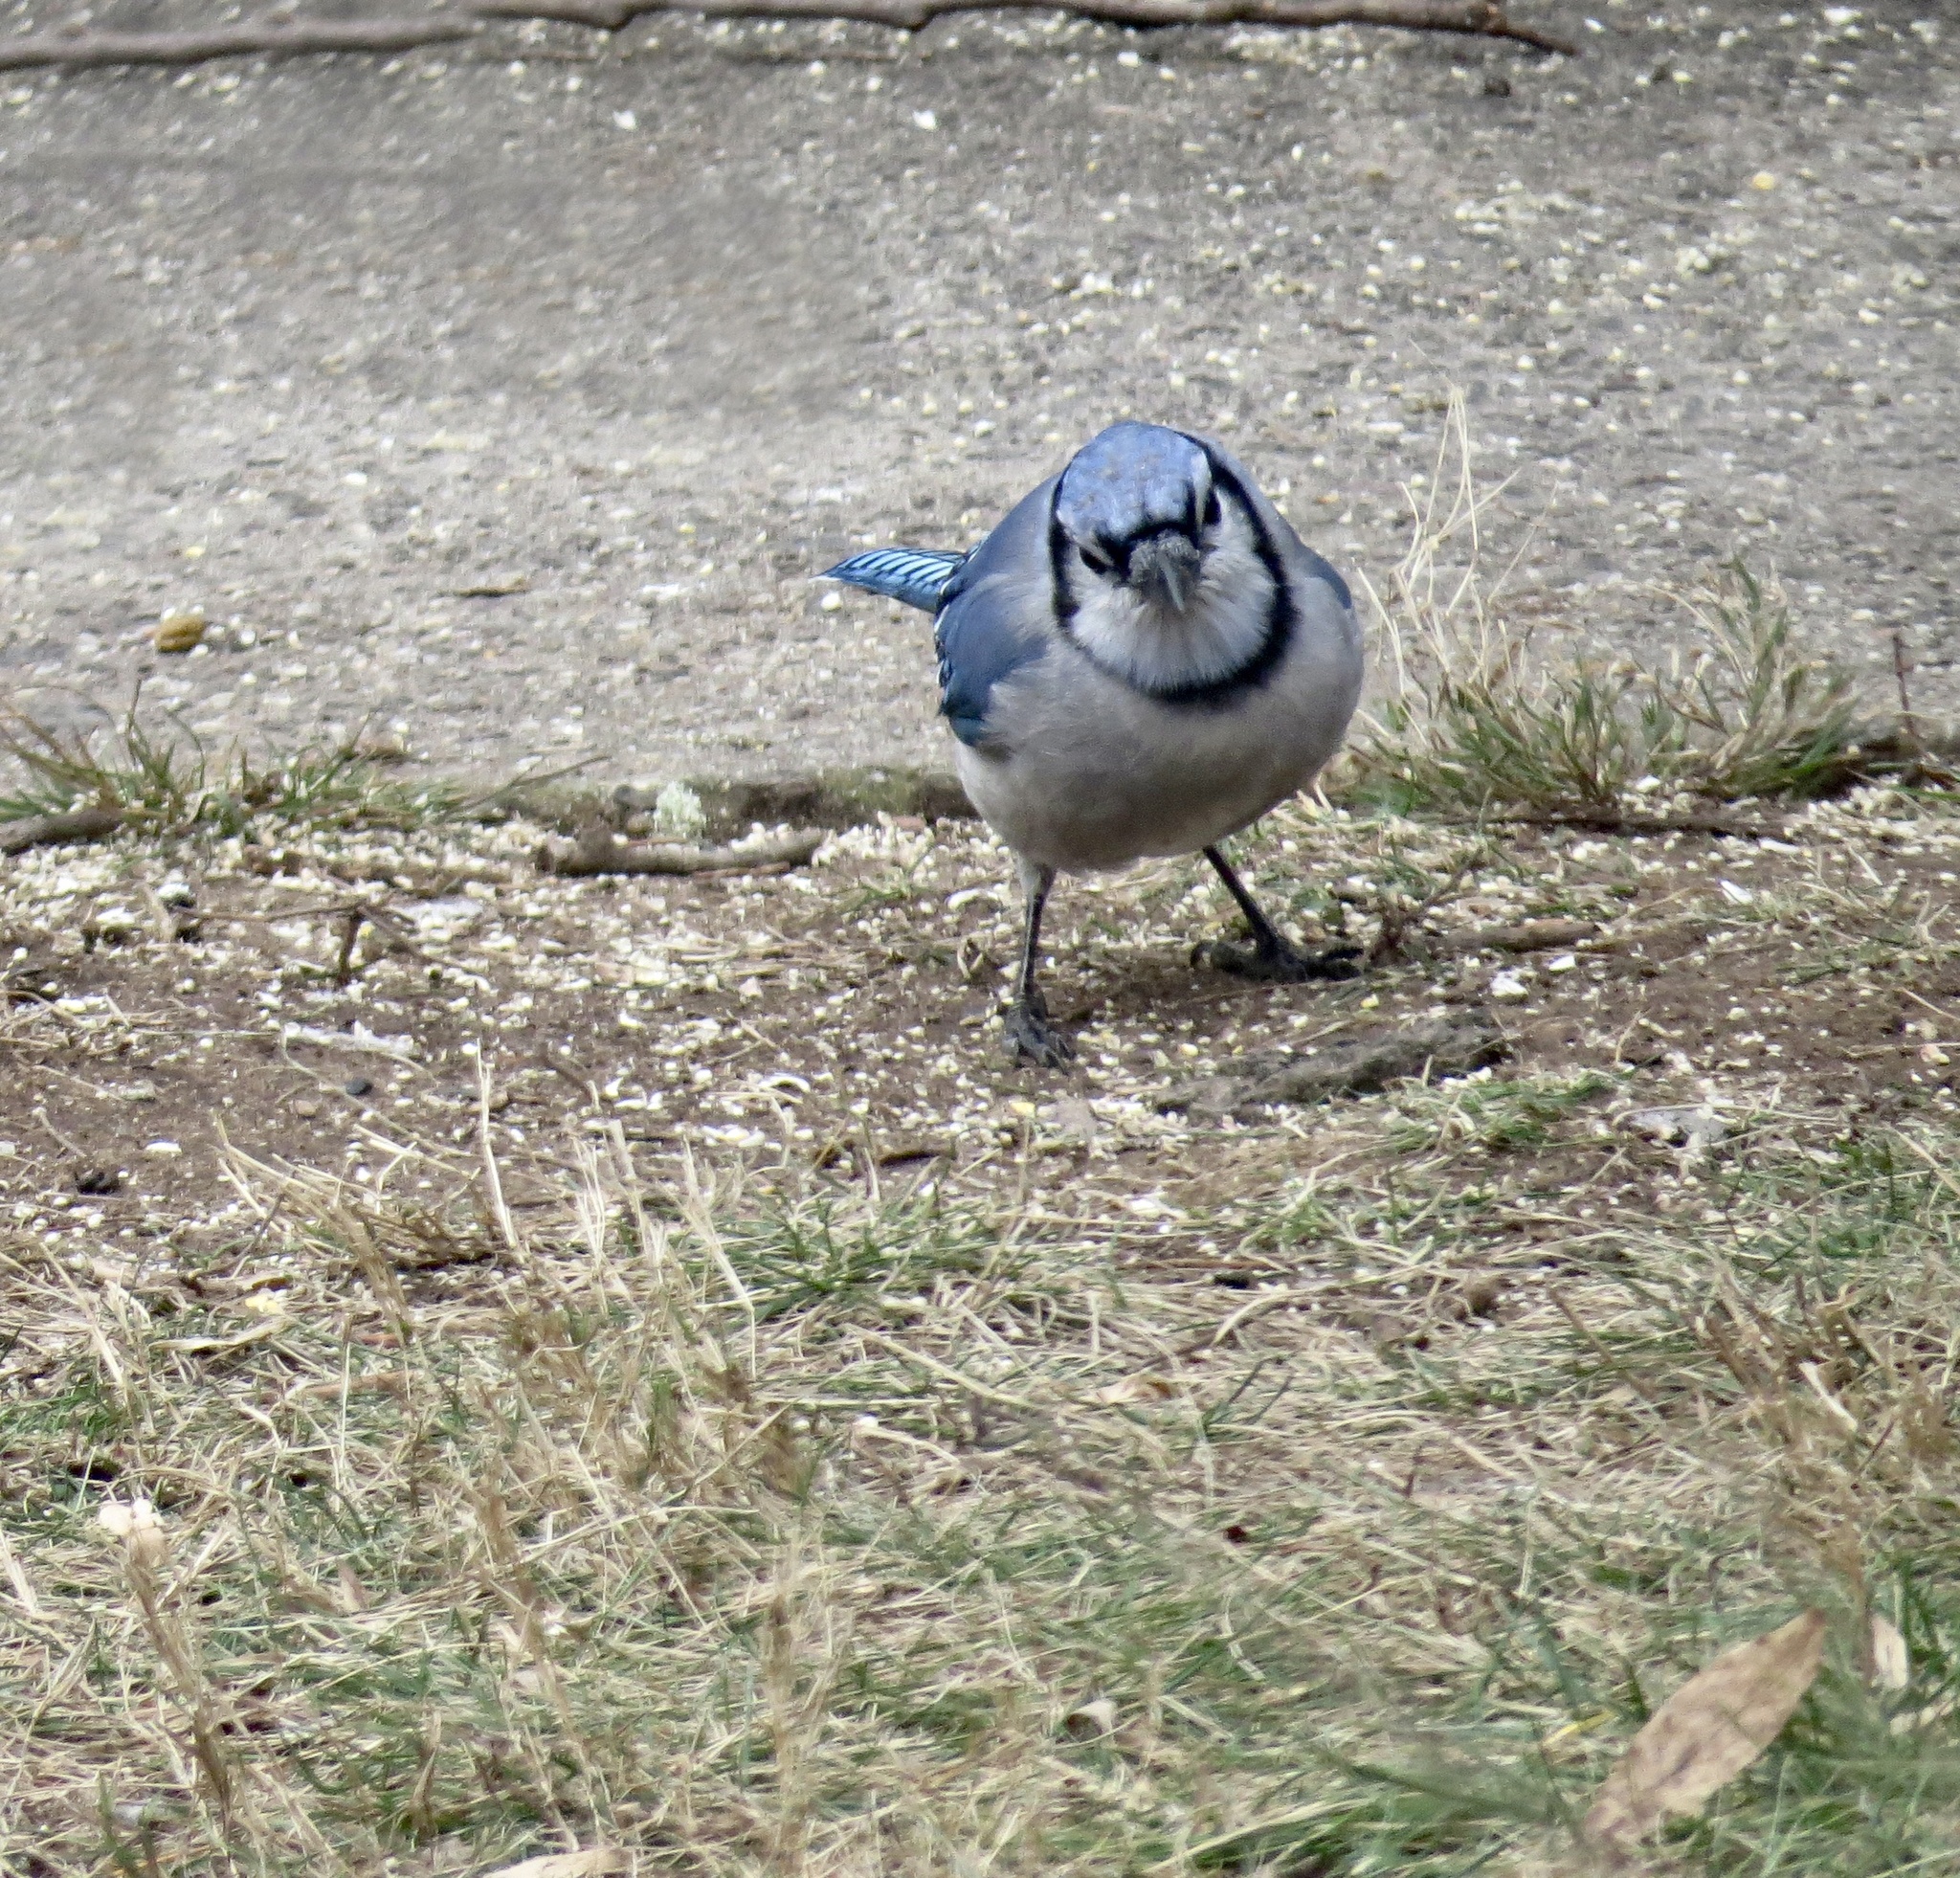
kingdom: Animalia
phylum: Chordata
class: Aves
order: Passeriformes
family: Corvidae
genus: Cyanocitta
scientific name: Cyanocitta cristata
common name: Blue jay
